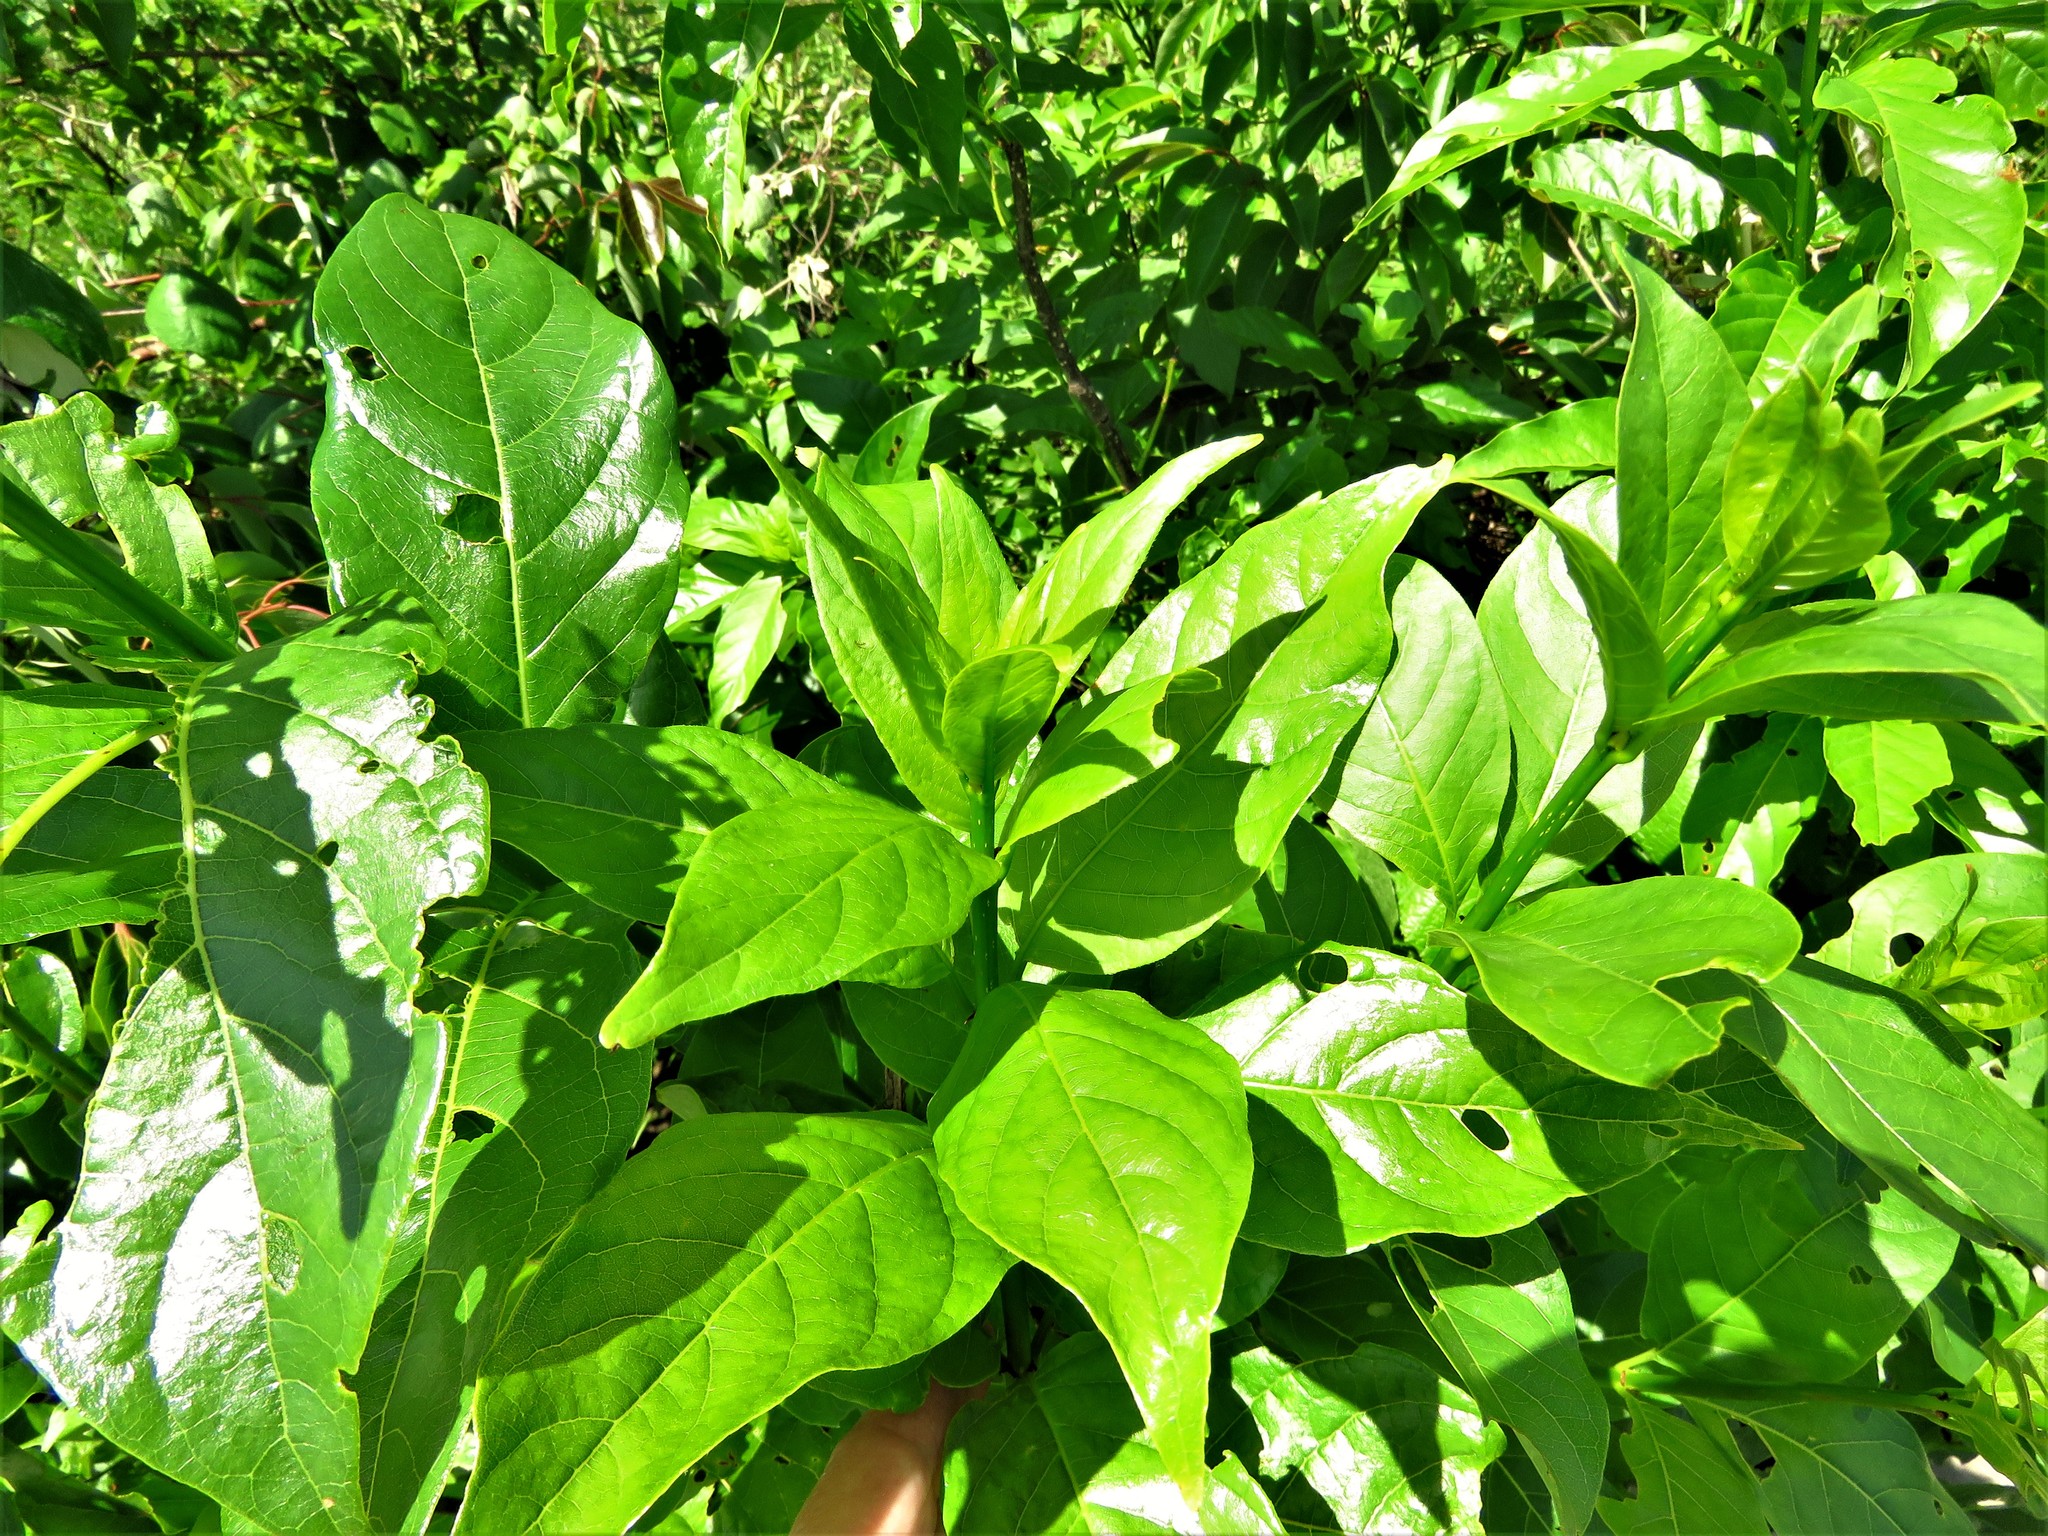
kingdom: Plantae
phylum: Tracheophyta
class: Magnoliopsida
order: Gentianales
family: Rubiaceae
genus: Cephalanthus
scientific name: Cephalanthus occidentalis
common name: Button-willow
